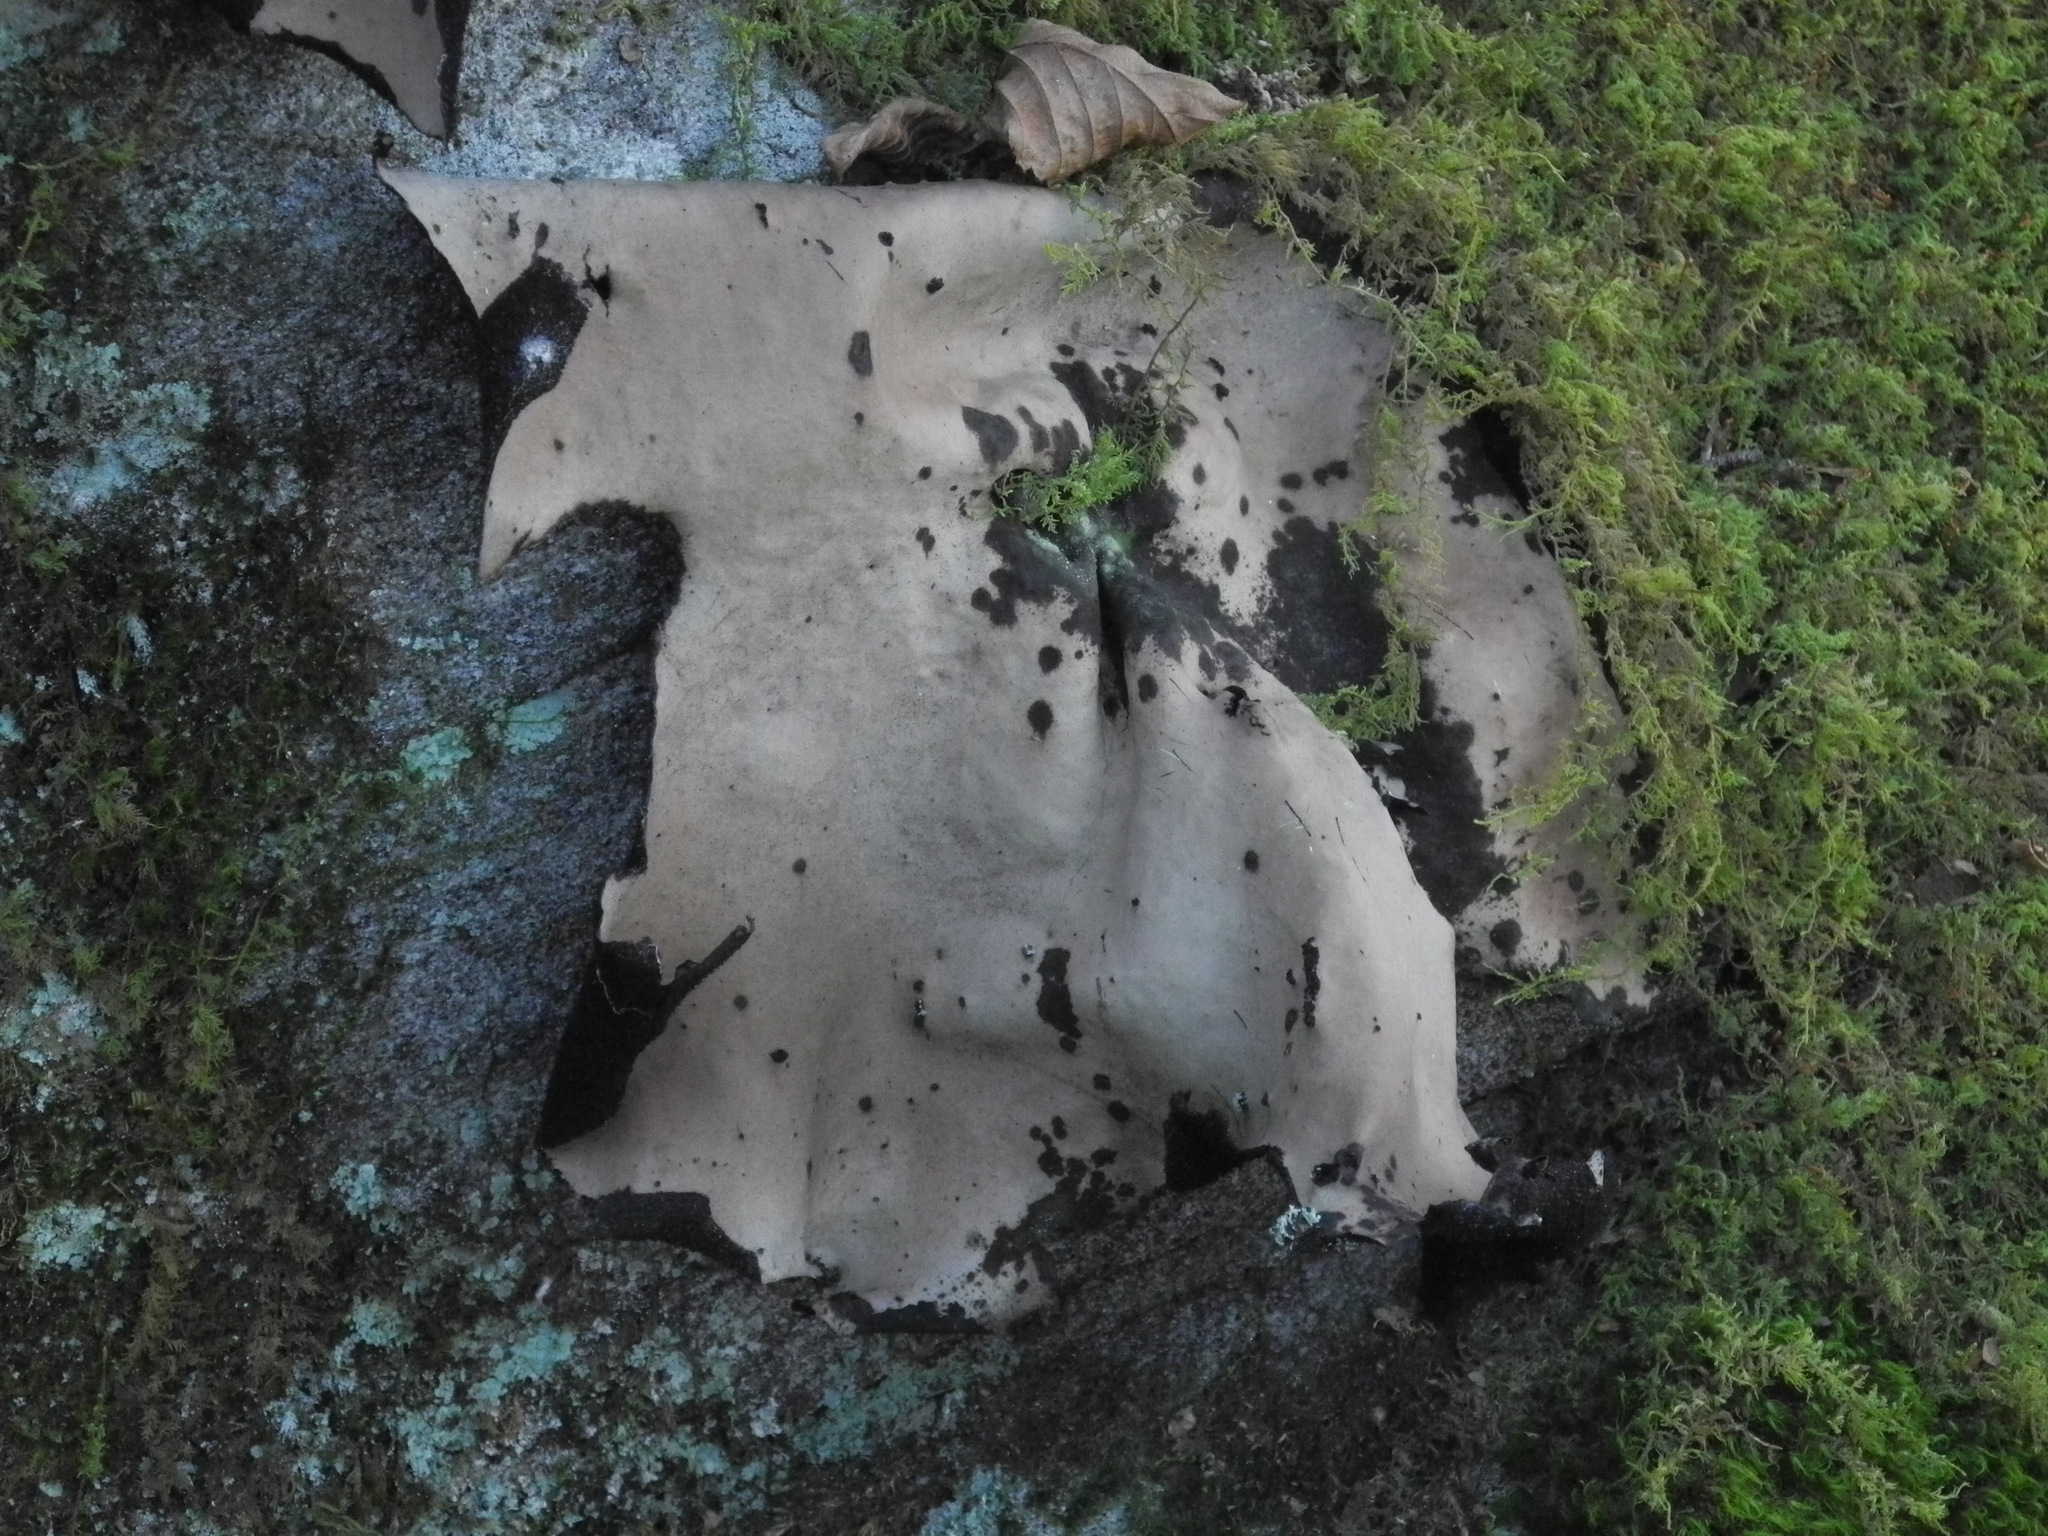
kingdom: Fungi
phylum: Ascomycota
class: Lecanoromycetes
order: Umbilicariales
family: Umbilicariaceae
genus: Umbilicaria
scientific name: Umbilicaria mammulata
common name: Smooth rock tripe
